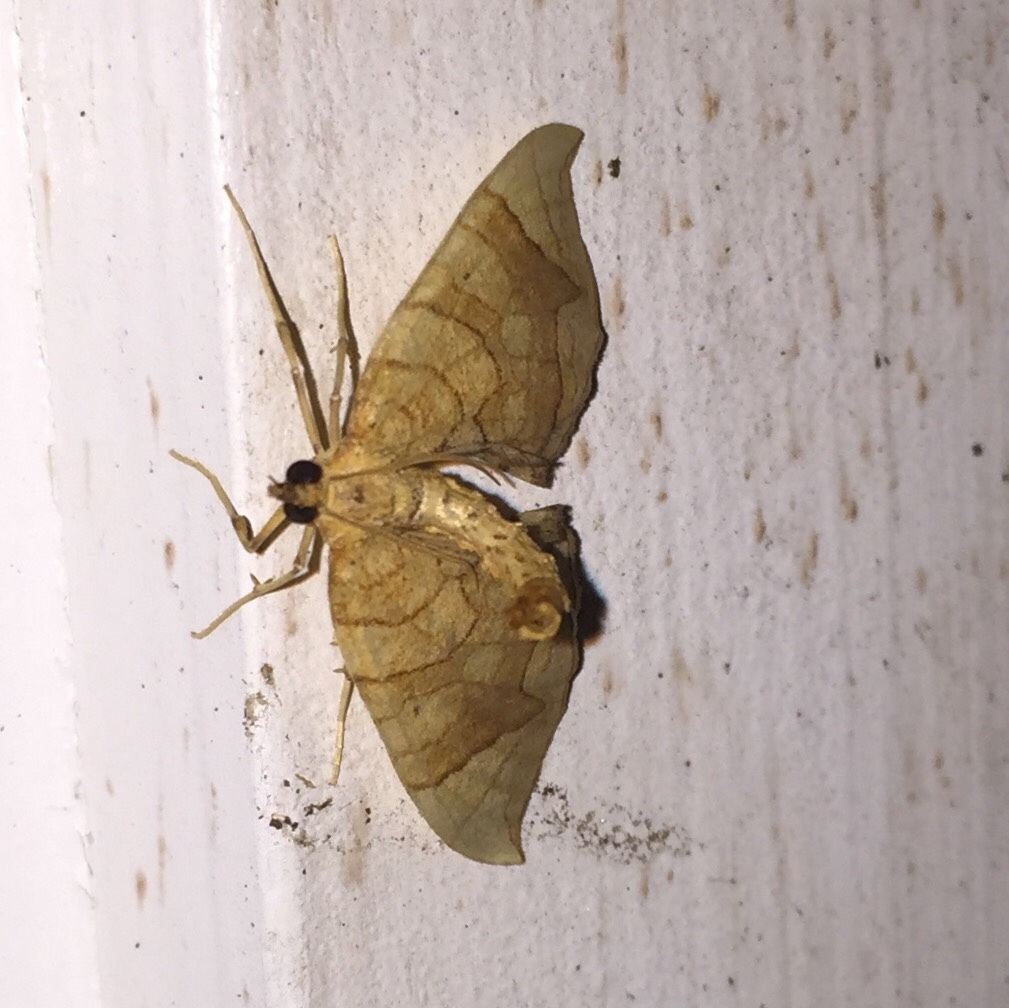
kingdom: Animalia
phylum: Arthropoda
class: Insecta
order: Lepidoptera
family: Geometridae
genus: Eulithis
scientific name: Eulithis
